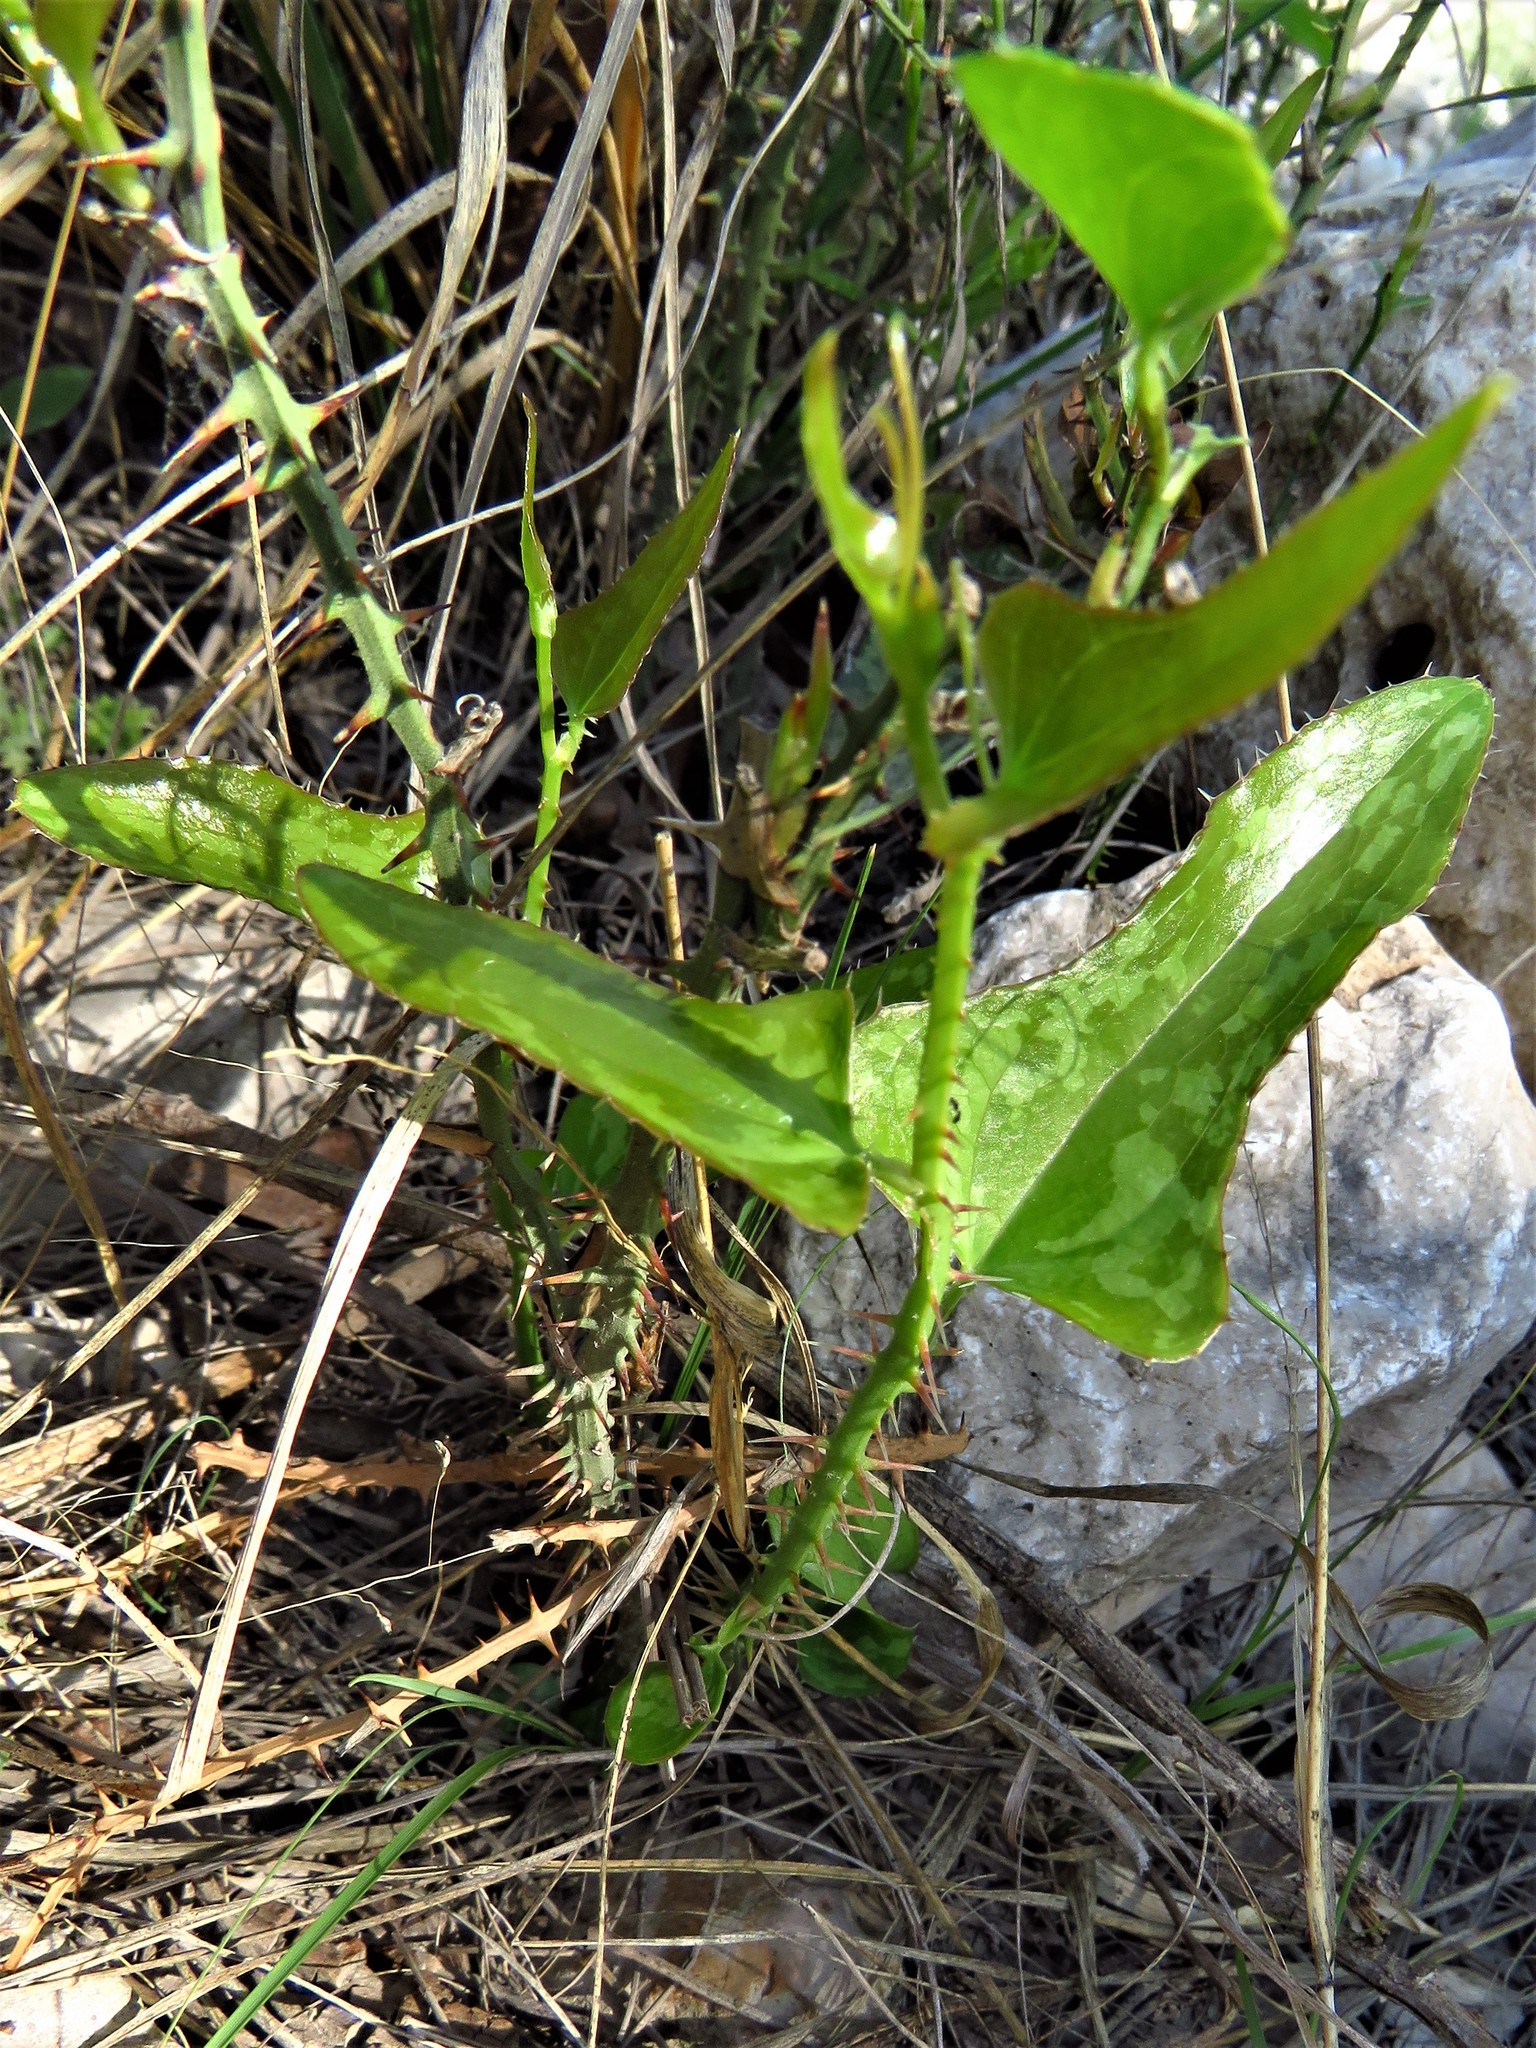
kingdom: Plantae
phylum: Tracheophyta
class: Liliopsida
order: Liliales
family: Smilacaceae
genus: Smilax
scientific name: Smilax bona-nox
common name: Catbrier
